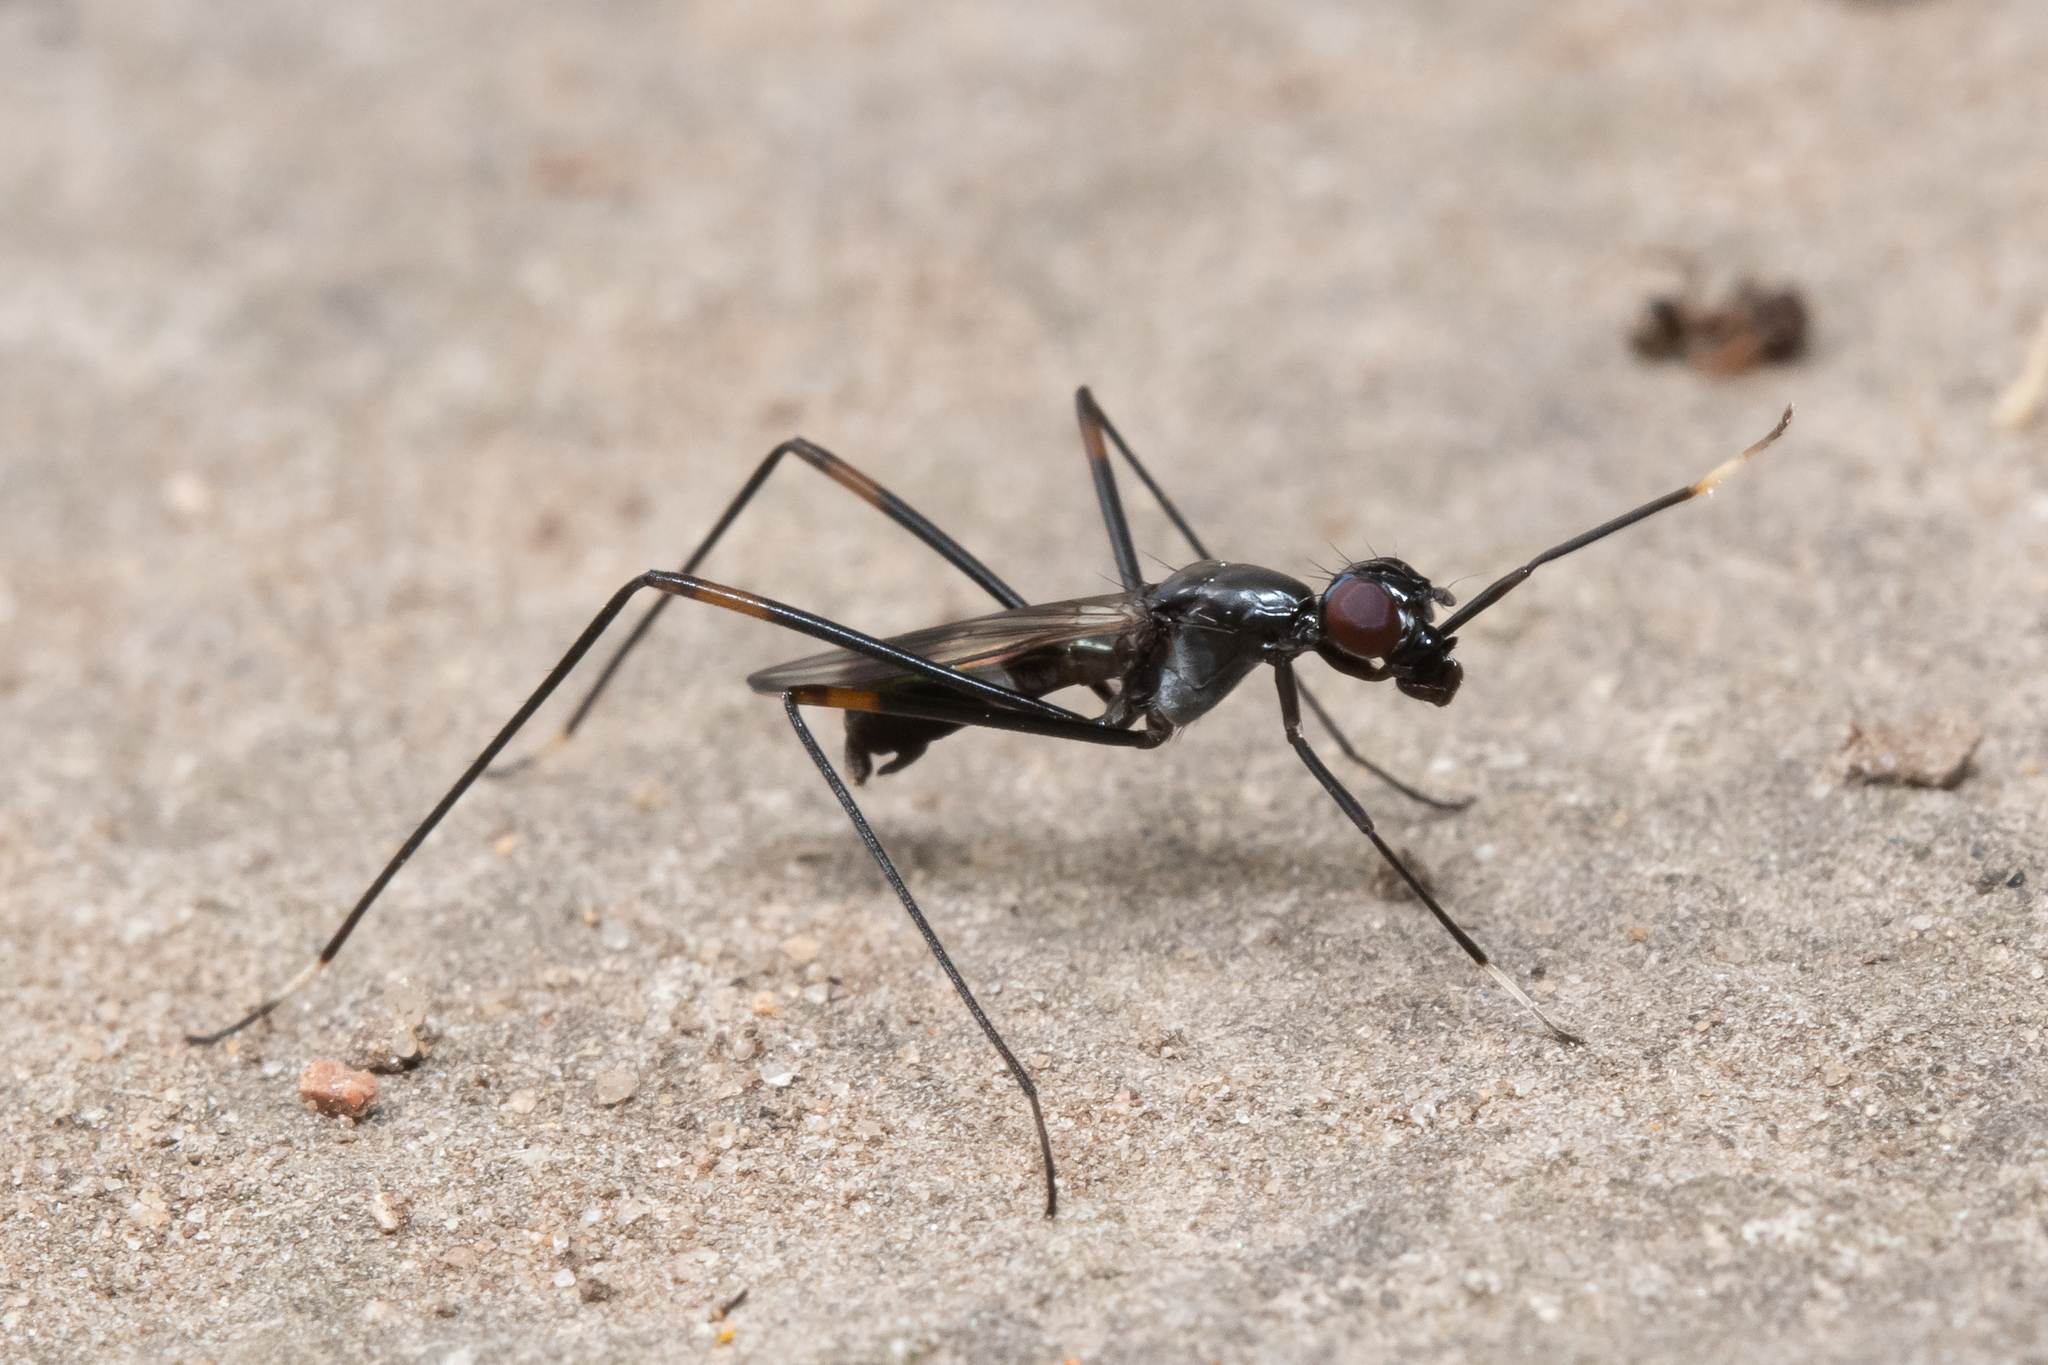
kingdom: Animalia
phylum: Arthropoda
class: Insecta
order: Diptera
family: Micropezidae
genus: Rainieria
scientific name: Rainieria calceata
